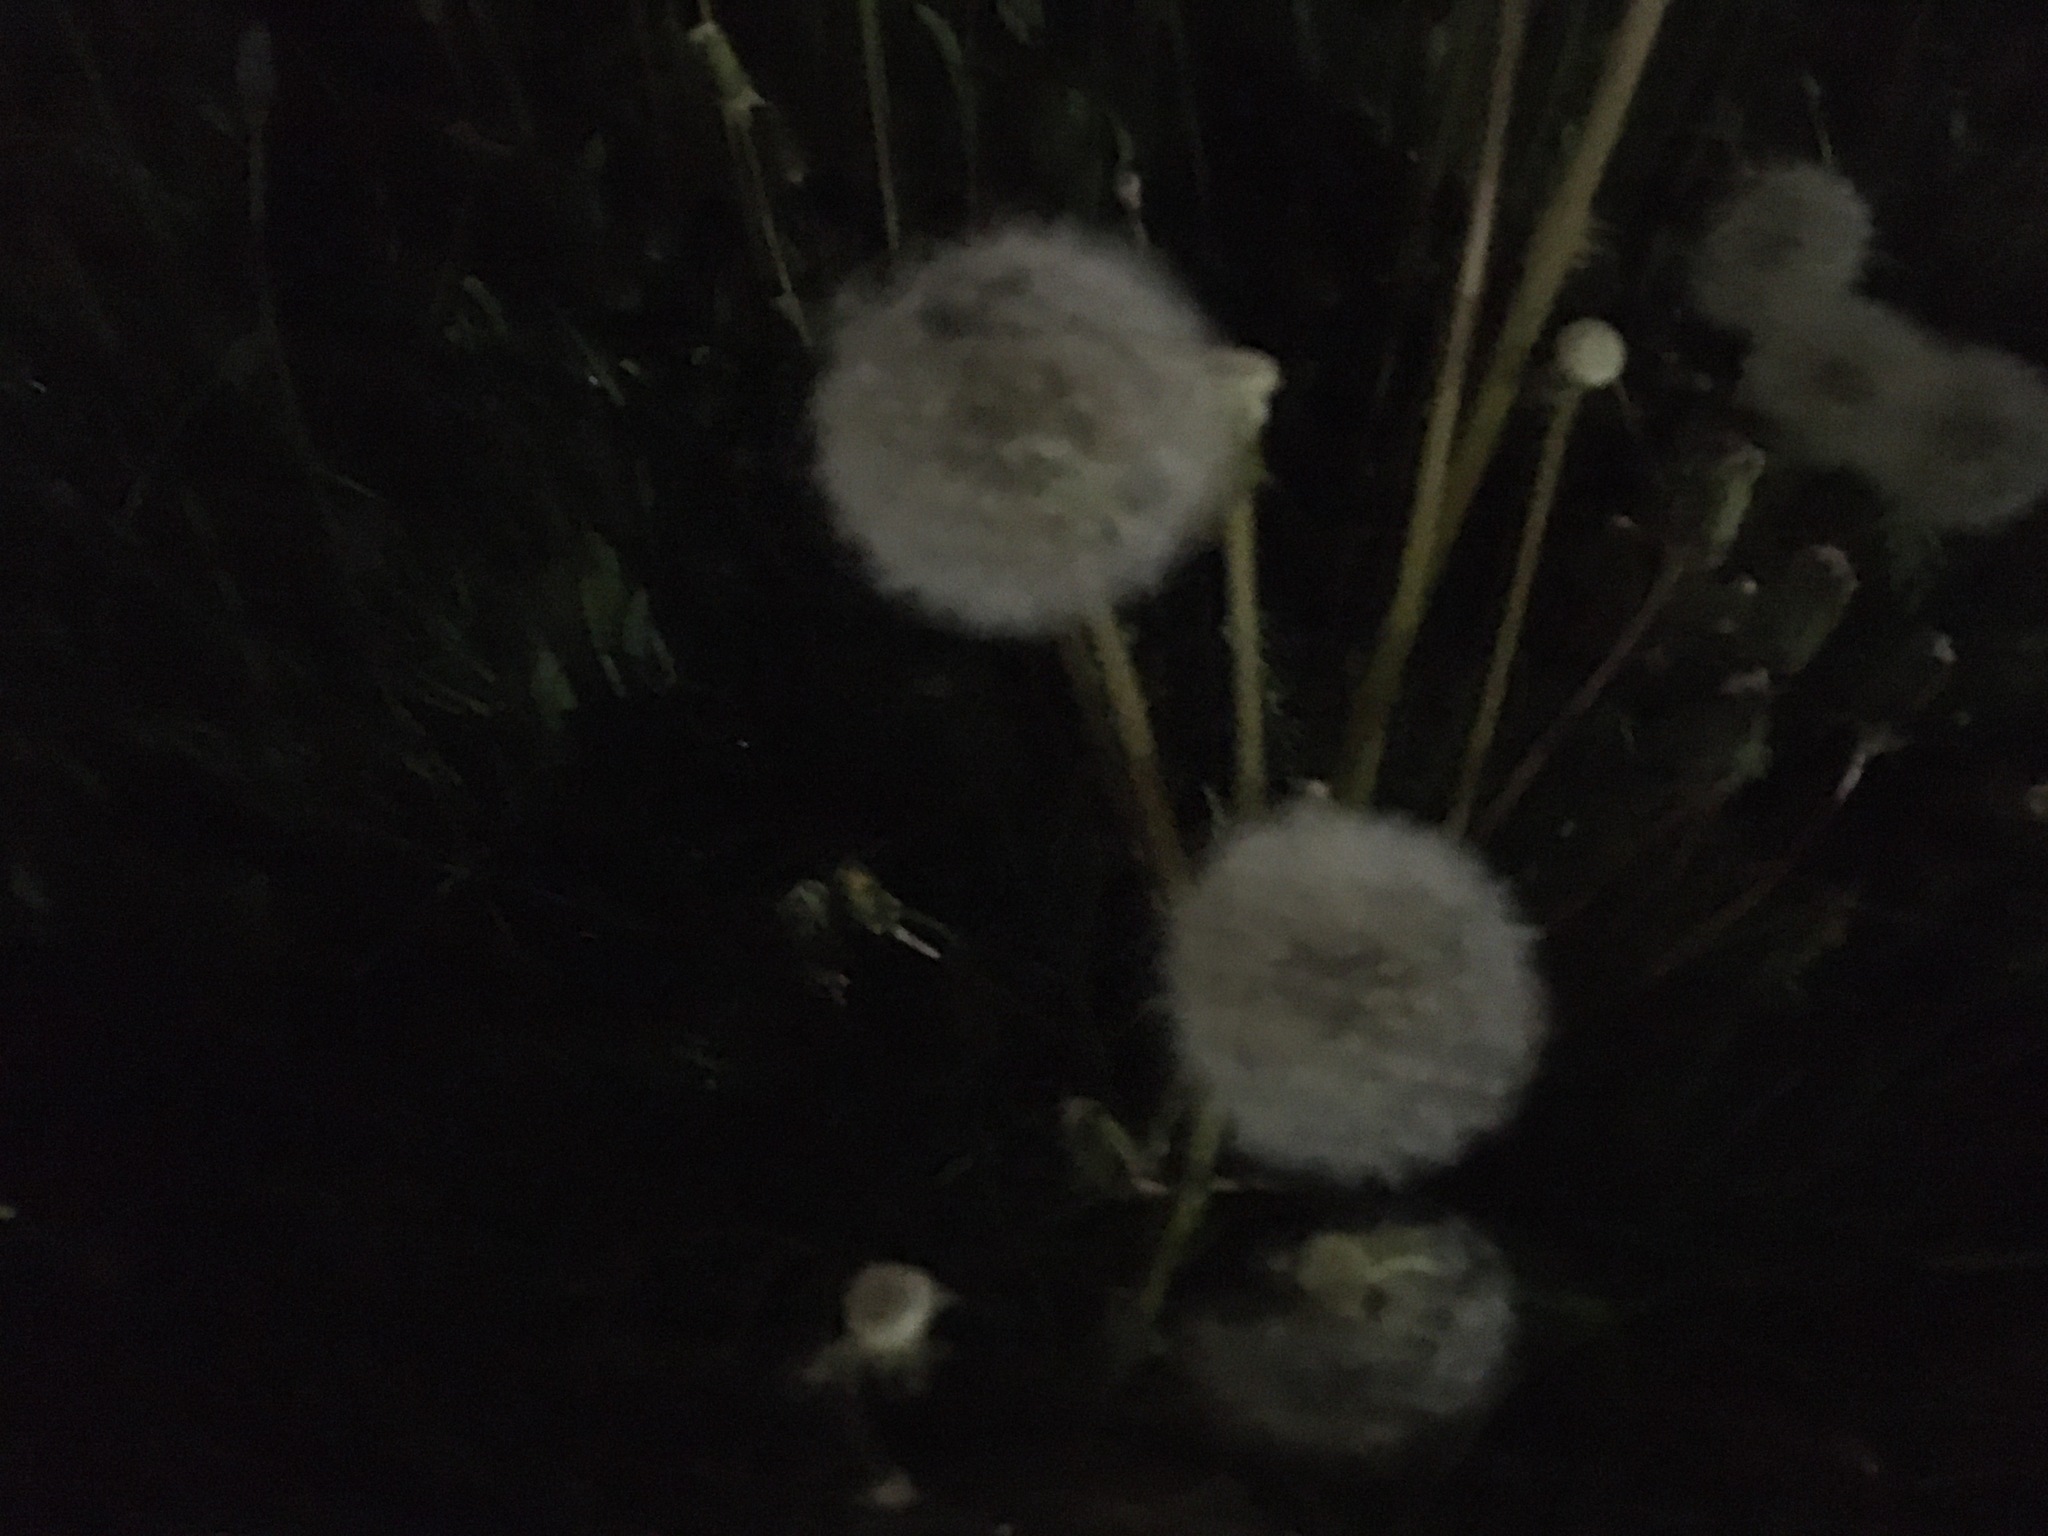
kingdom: Plantae
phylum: Tracheophyta
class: Magnoliopsida
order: Asterales
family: Asteraceae
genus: Taraxacum
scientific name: Taraxacum officinale
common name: Common dandelion
